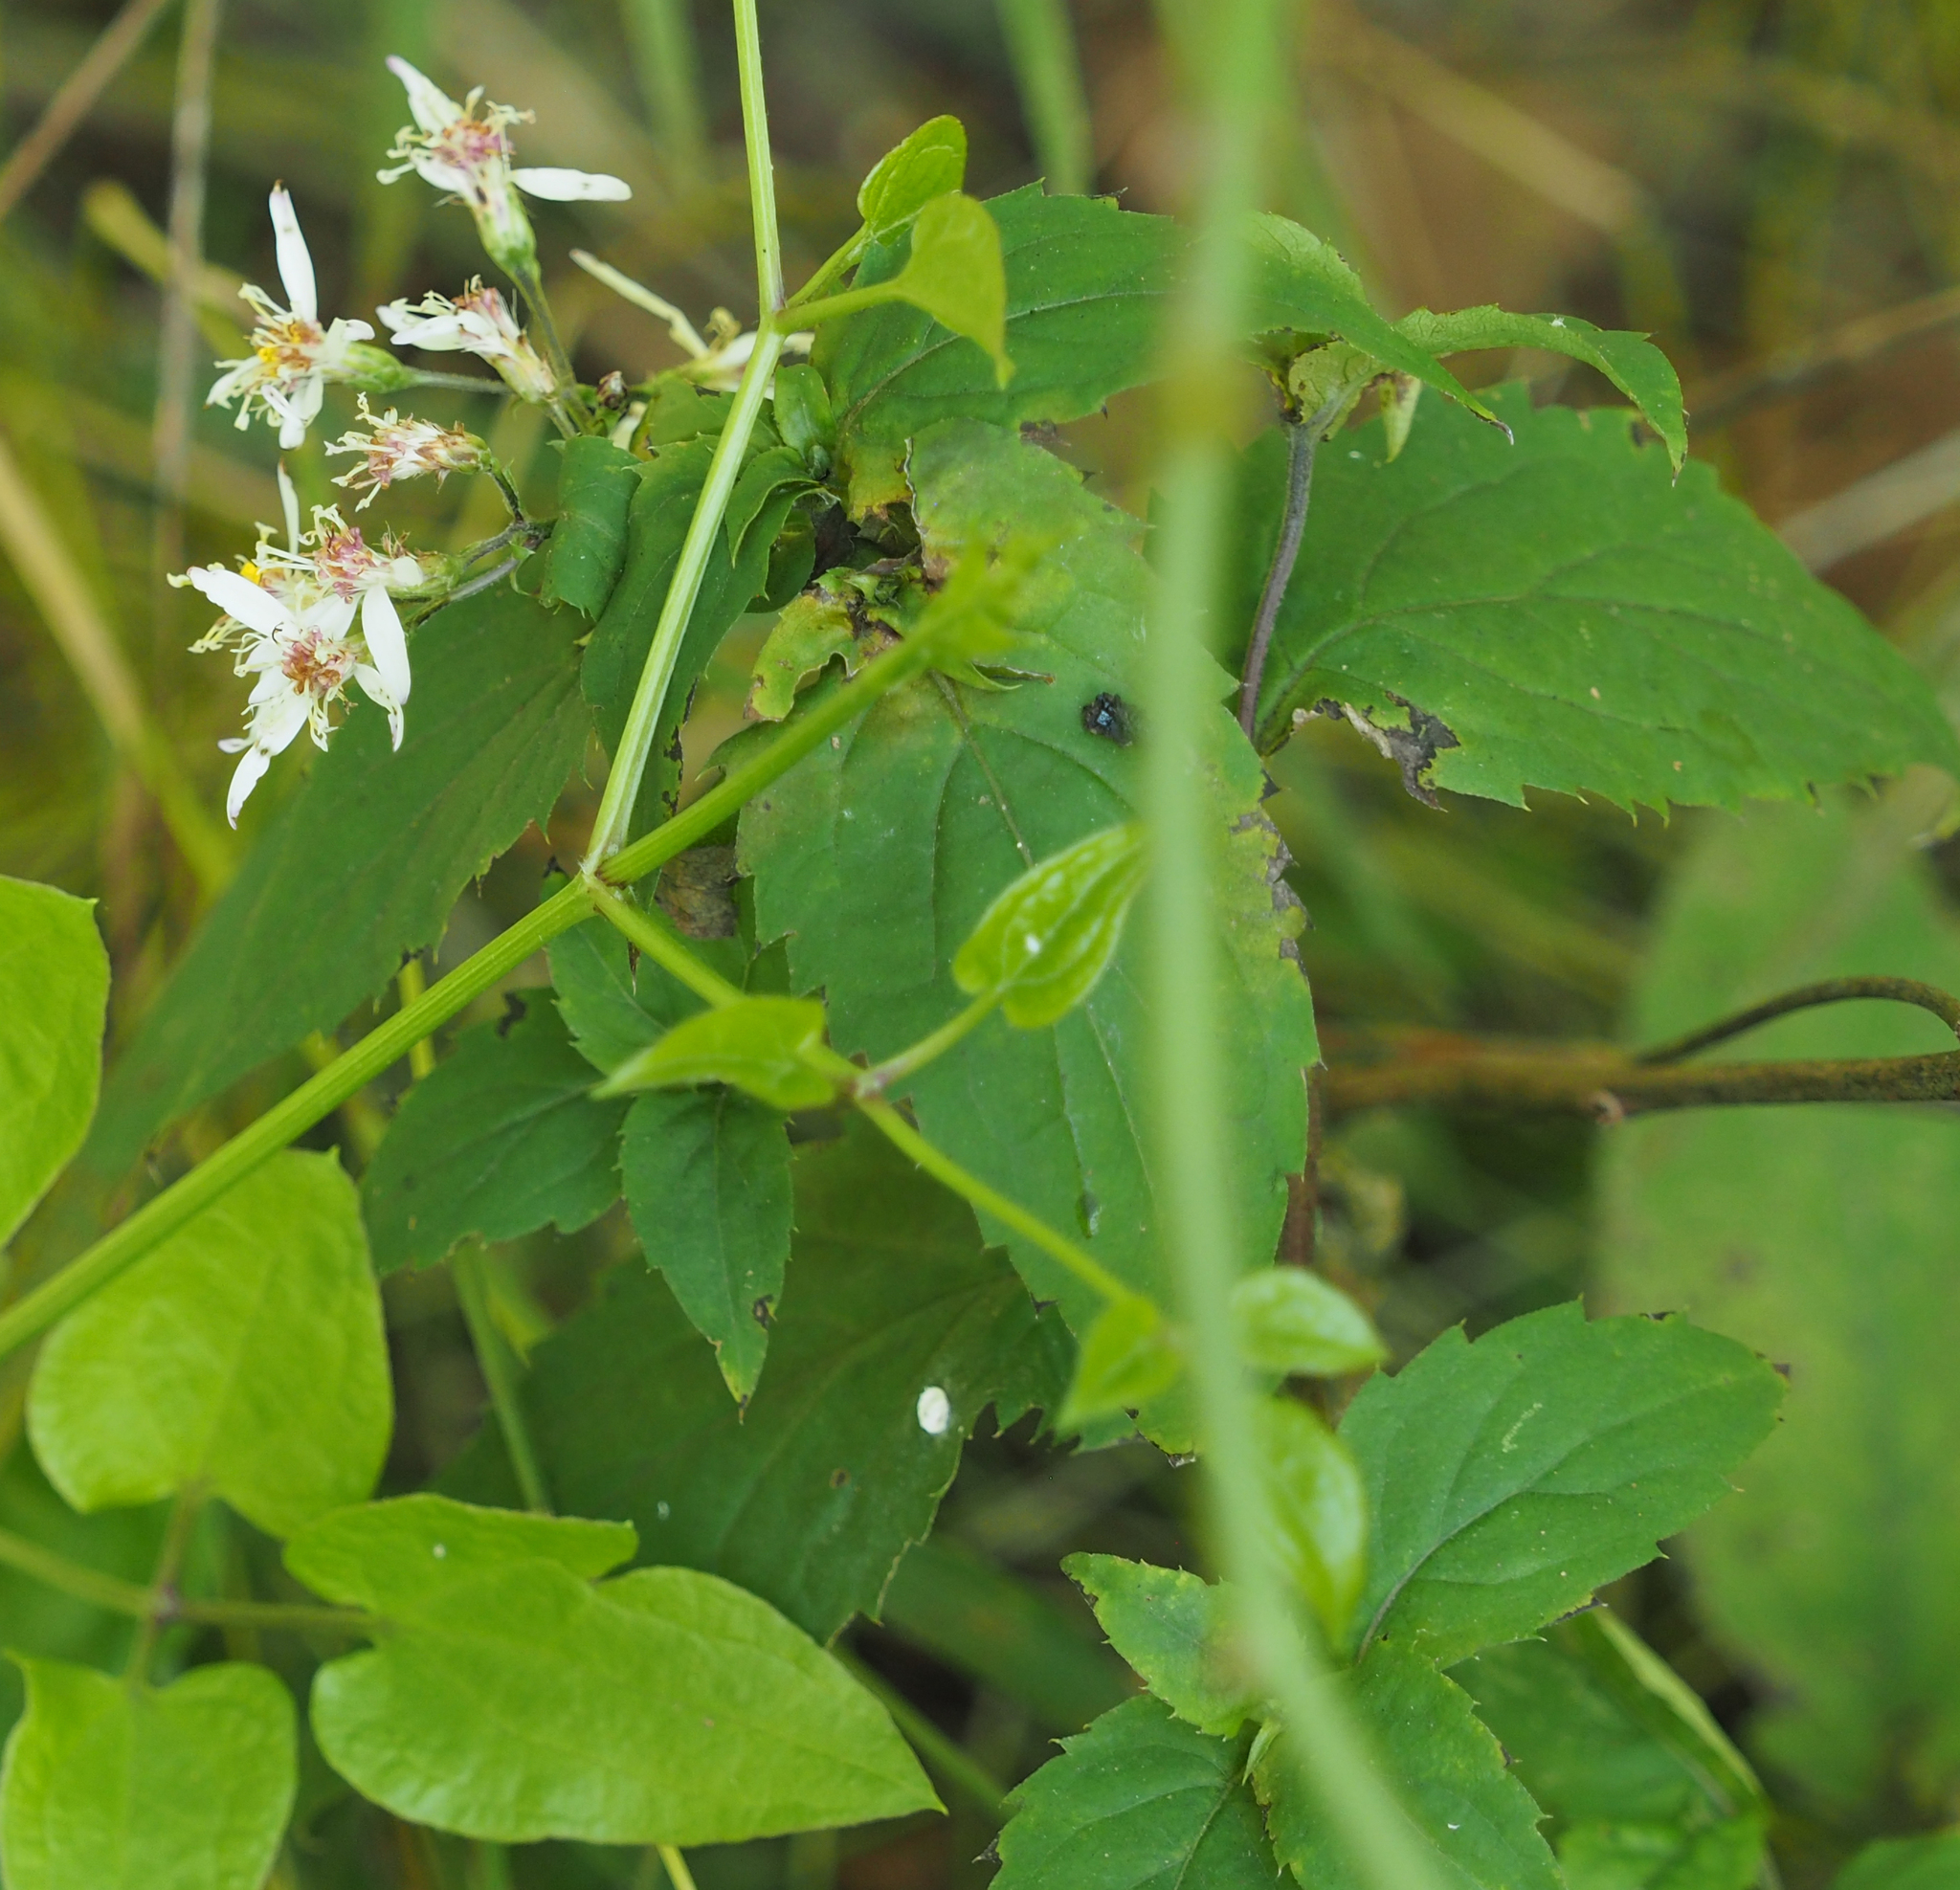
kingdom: Plantae
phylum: Tracheophyta
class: Magnoliopsida
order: Asterales
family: Asteraceae
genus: Eurybia
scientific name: Eurybia divaricata
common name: White wood aster
